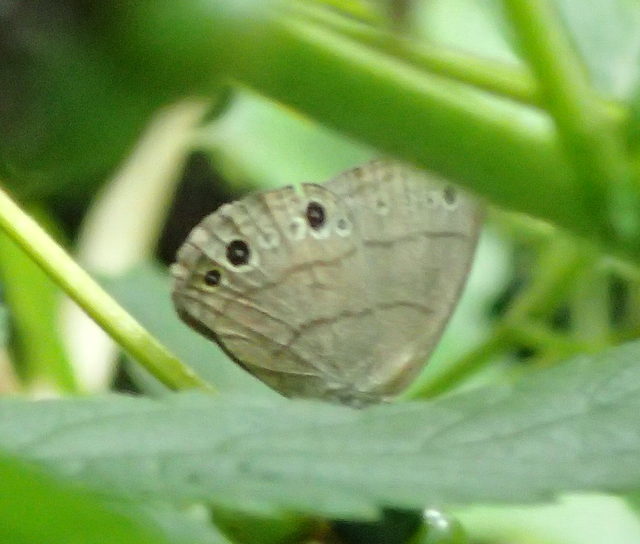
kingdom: Animalia
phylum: Arthropoda
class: Insecta
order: Lepidoptera
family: Nymphalidae
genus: Hermeuptychia
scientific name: Hermeuptychia hermes
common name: Hermes satyr
